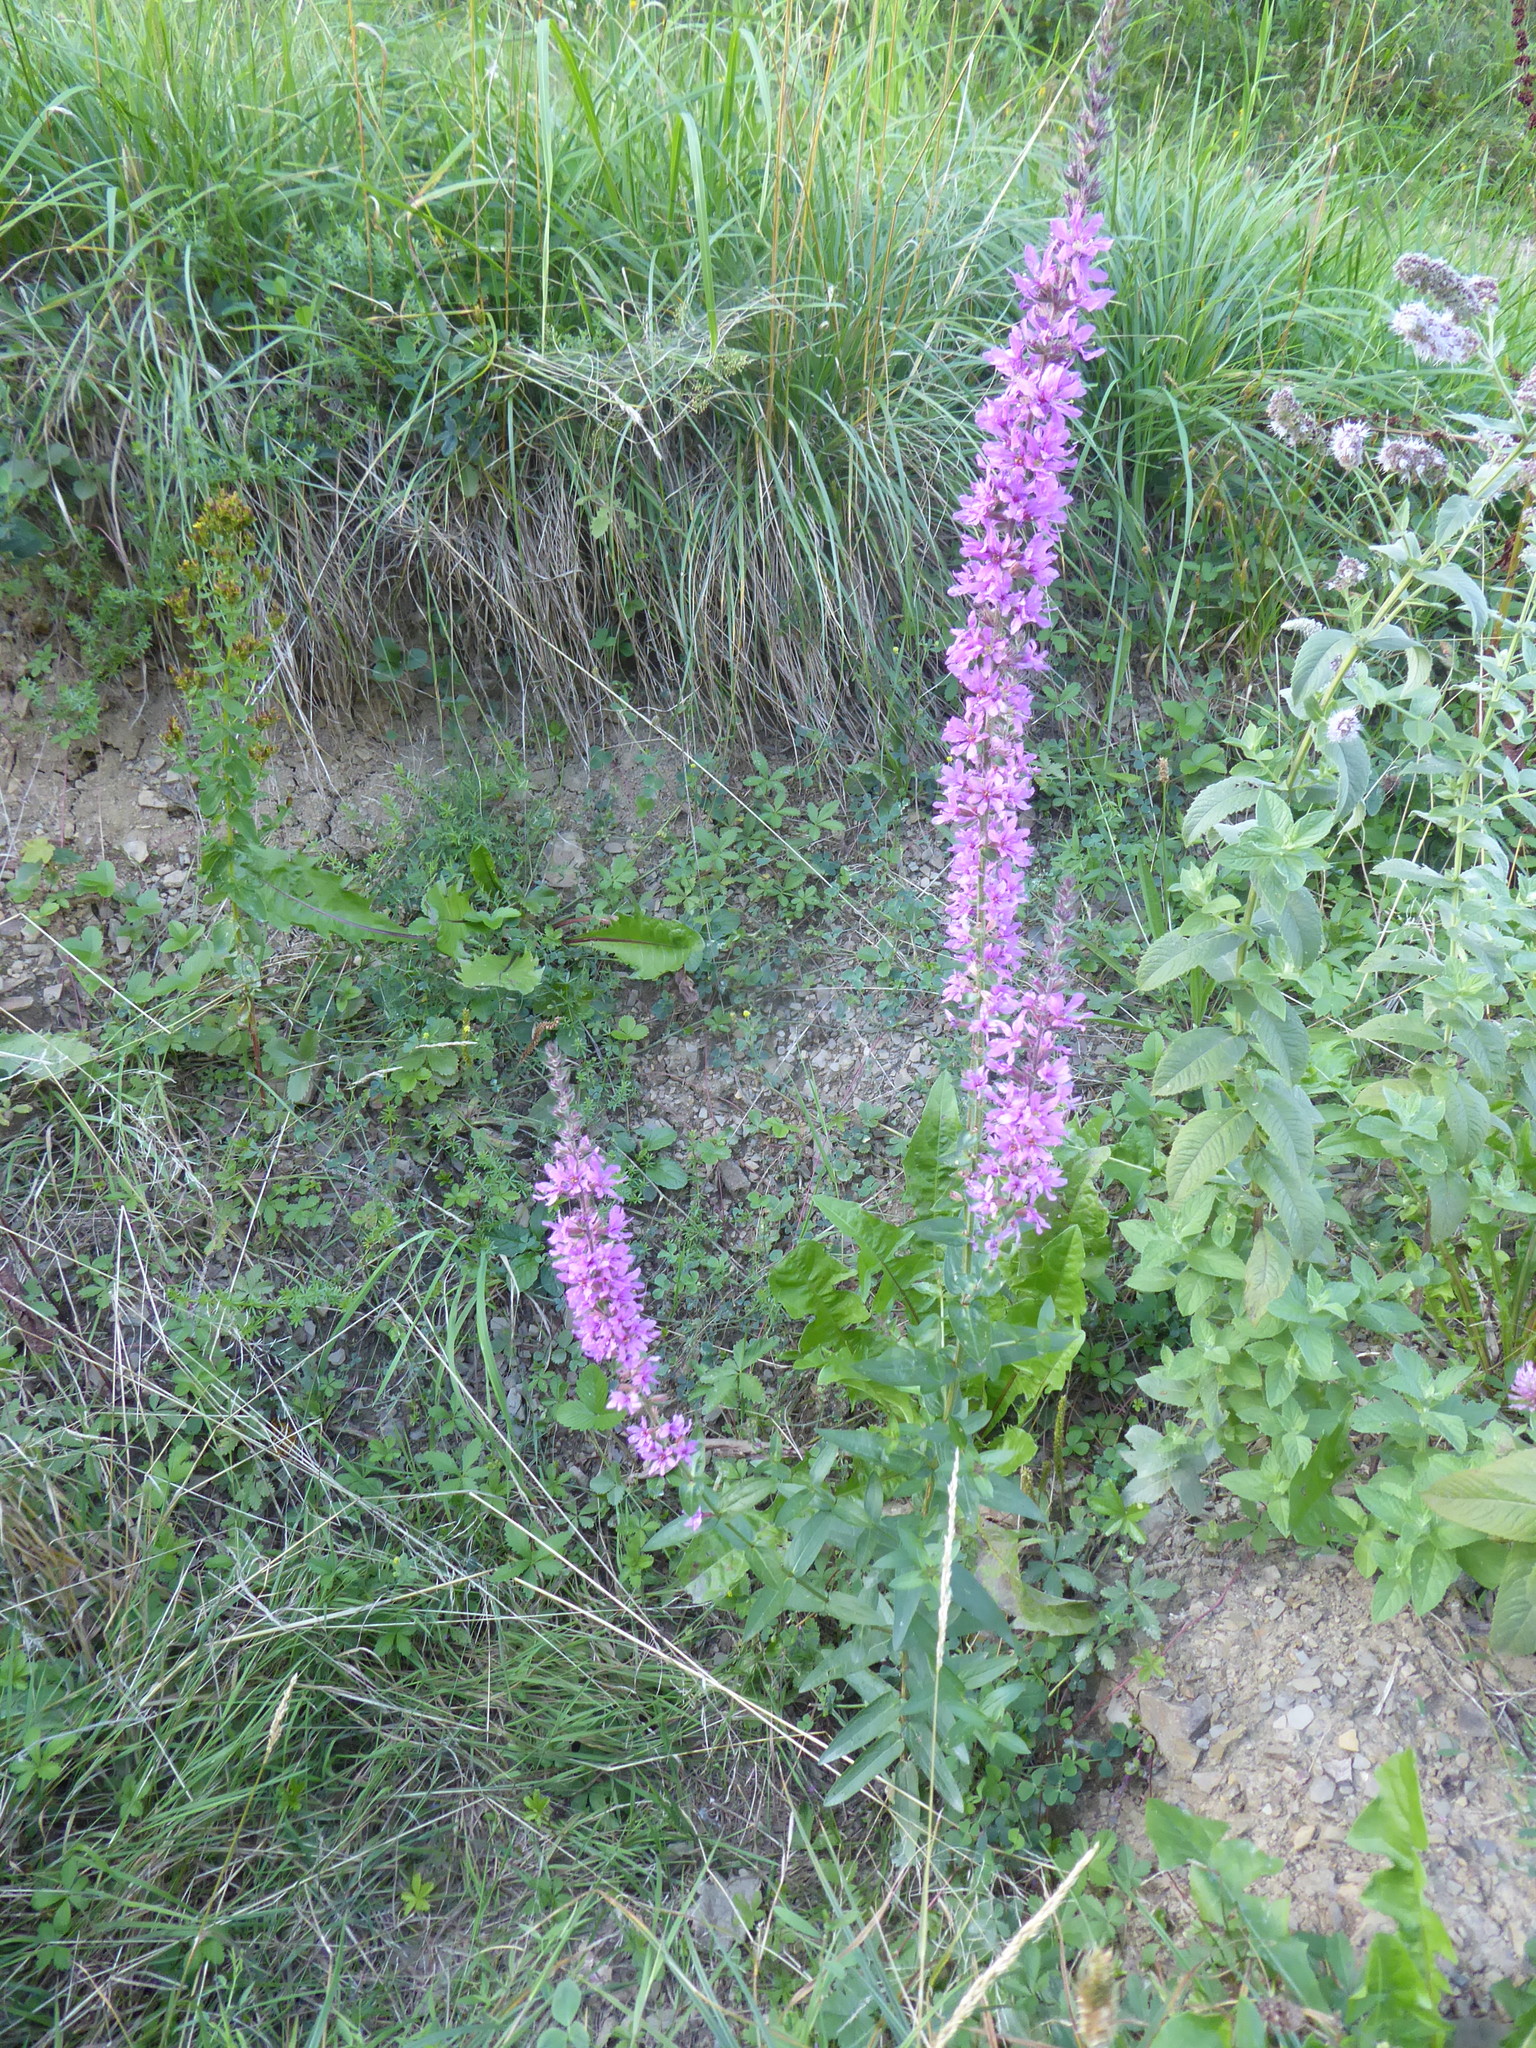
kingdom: Plantae
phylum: Tracheophyta
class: Magnoliopsida
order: Myrtales
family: Lythraceae
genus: Lythrum
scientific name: Lythrum salicaria
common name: Purple loosestrife
